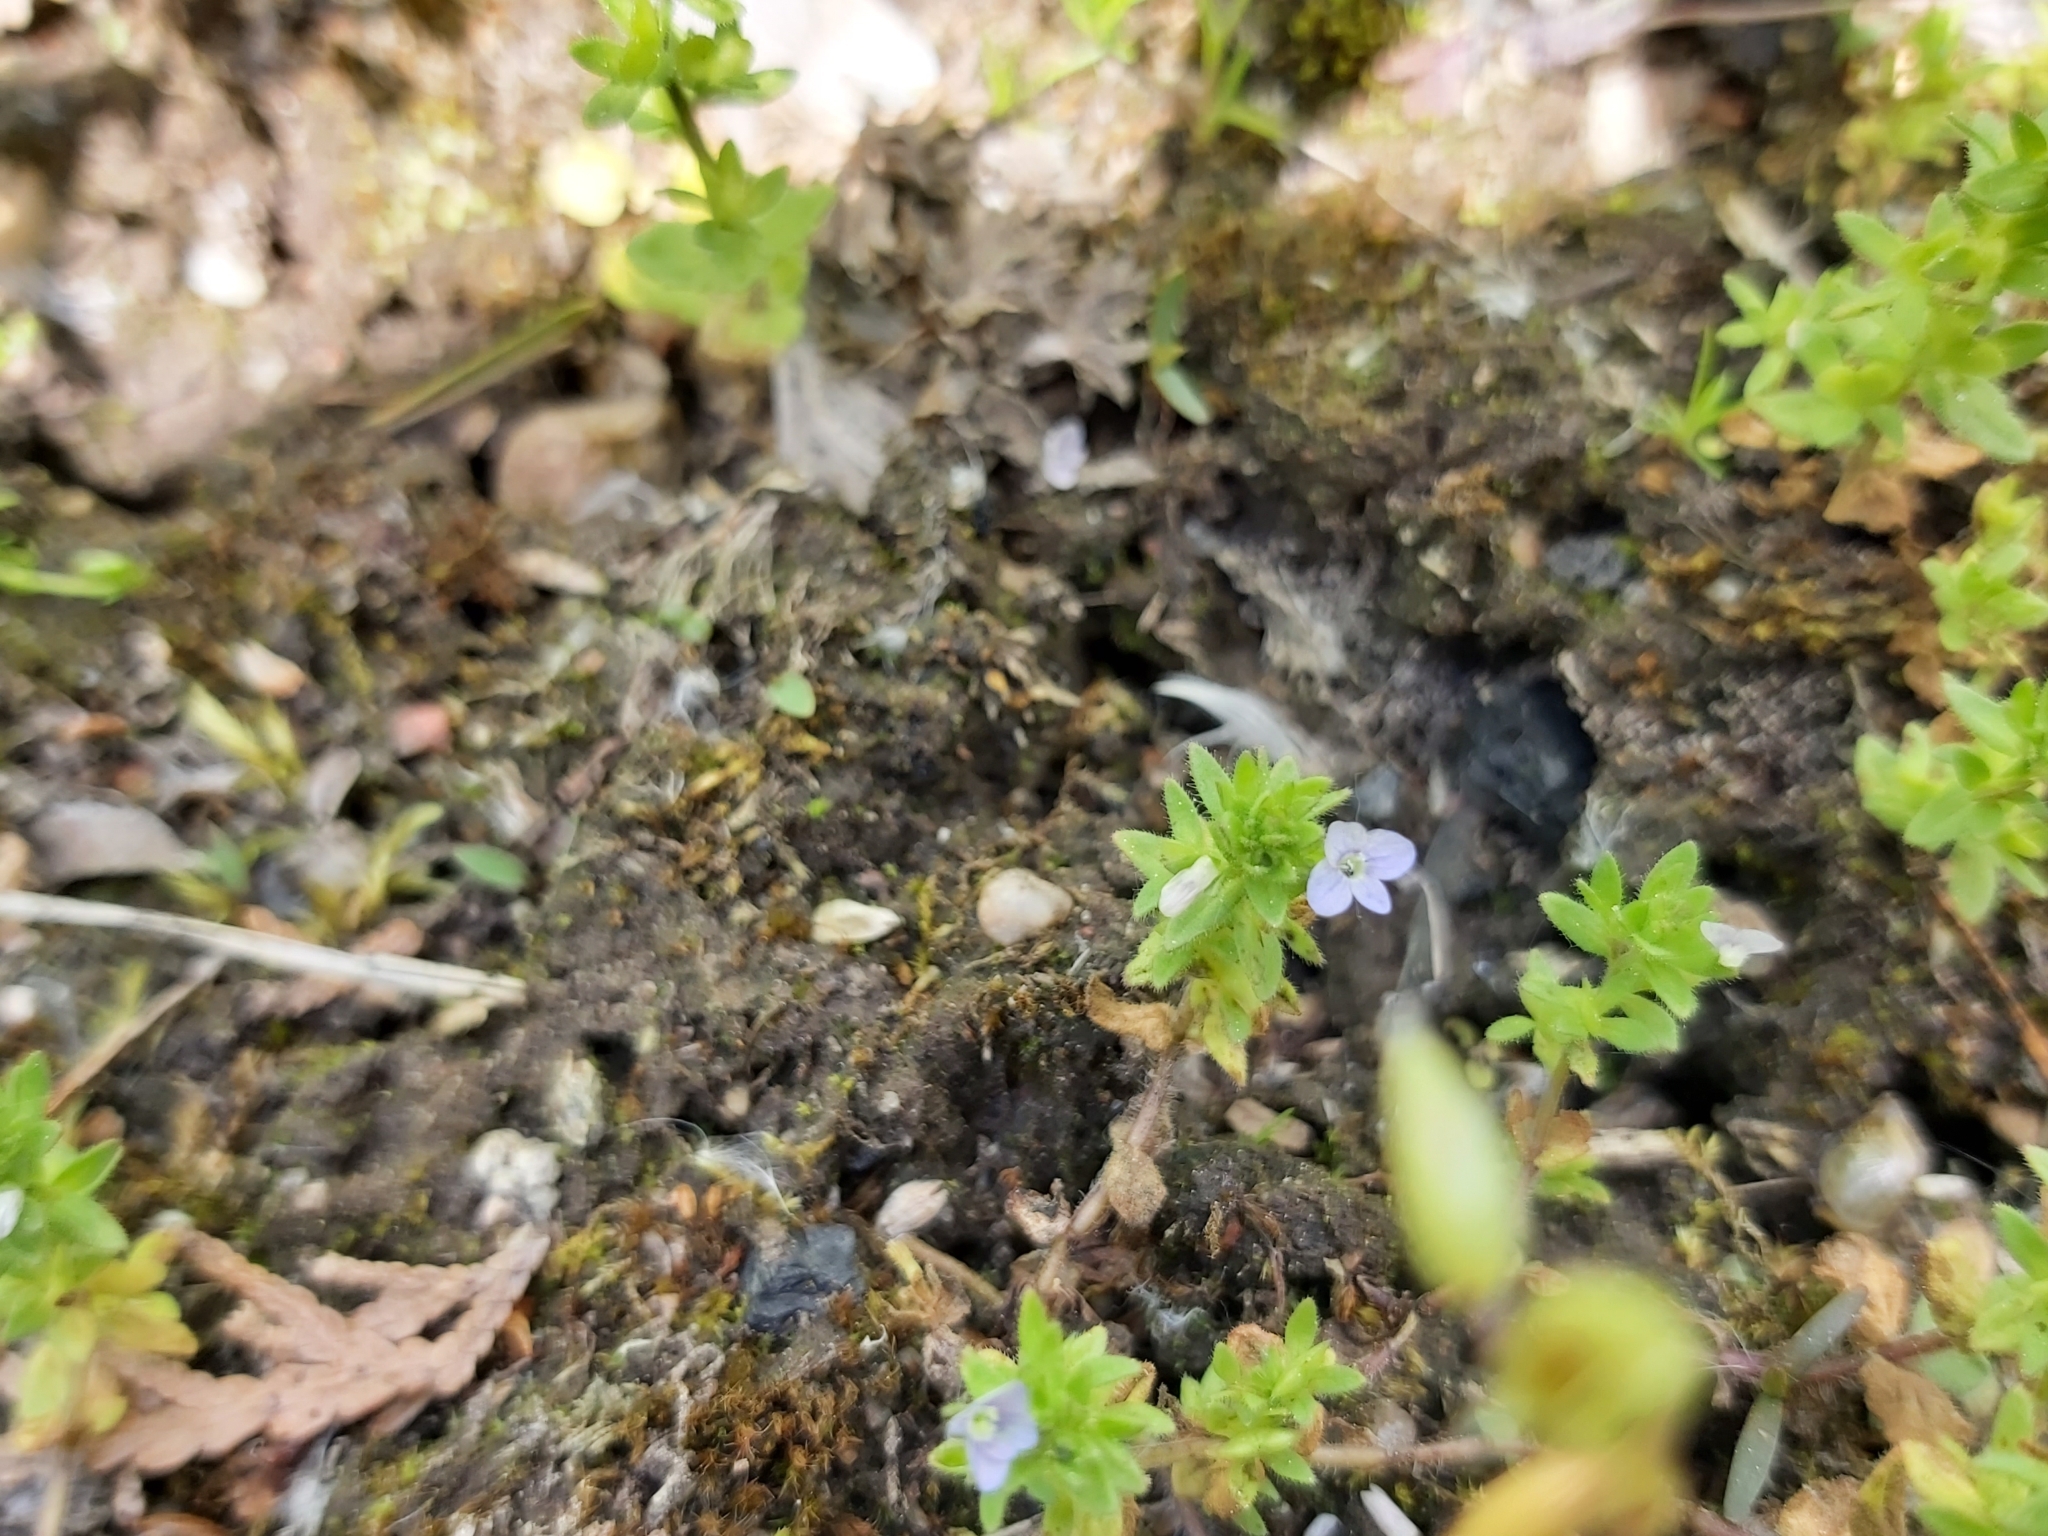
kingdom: Plantae
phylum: Tracheophyta
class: Magnoliopsida
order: Lamiales
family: Plantaginaceae
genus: Veronica
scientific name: Veronica arvensis
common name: Corn speedwell
